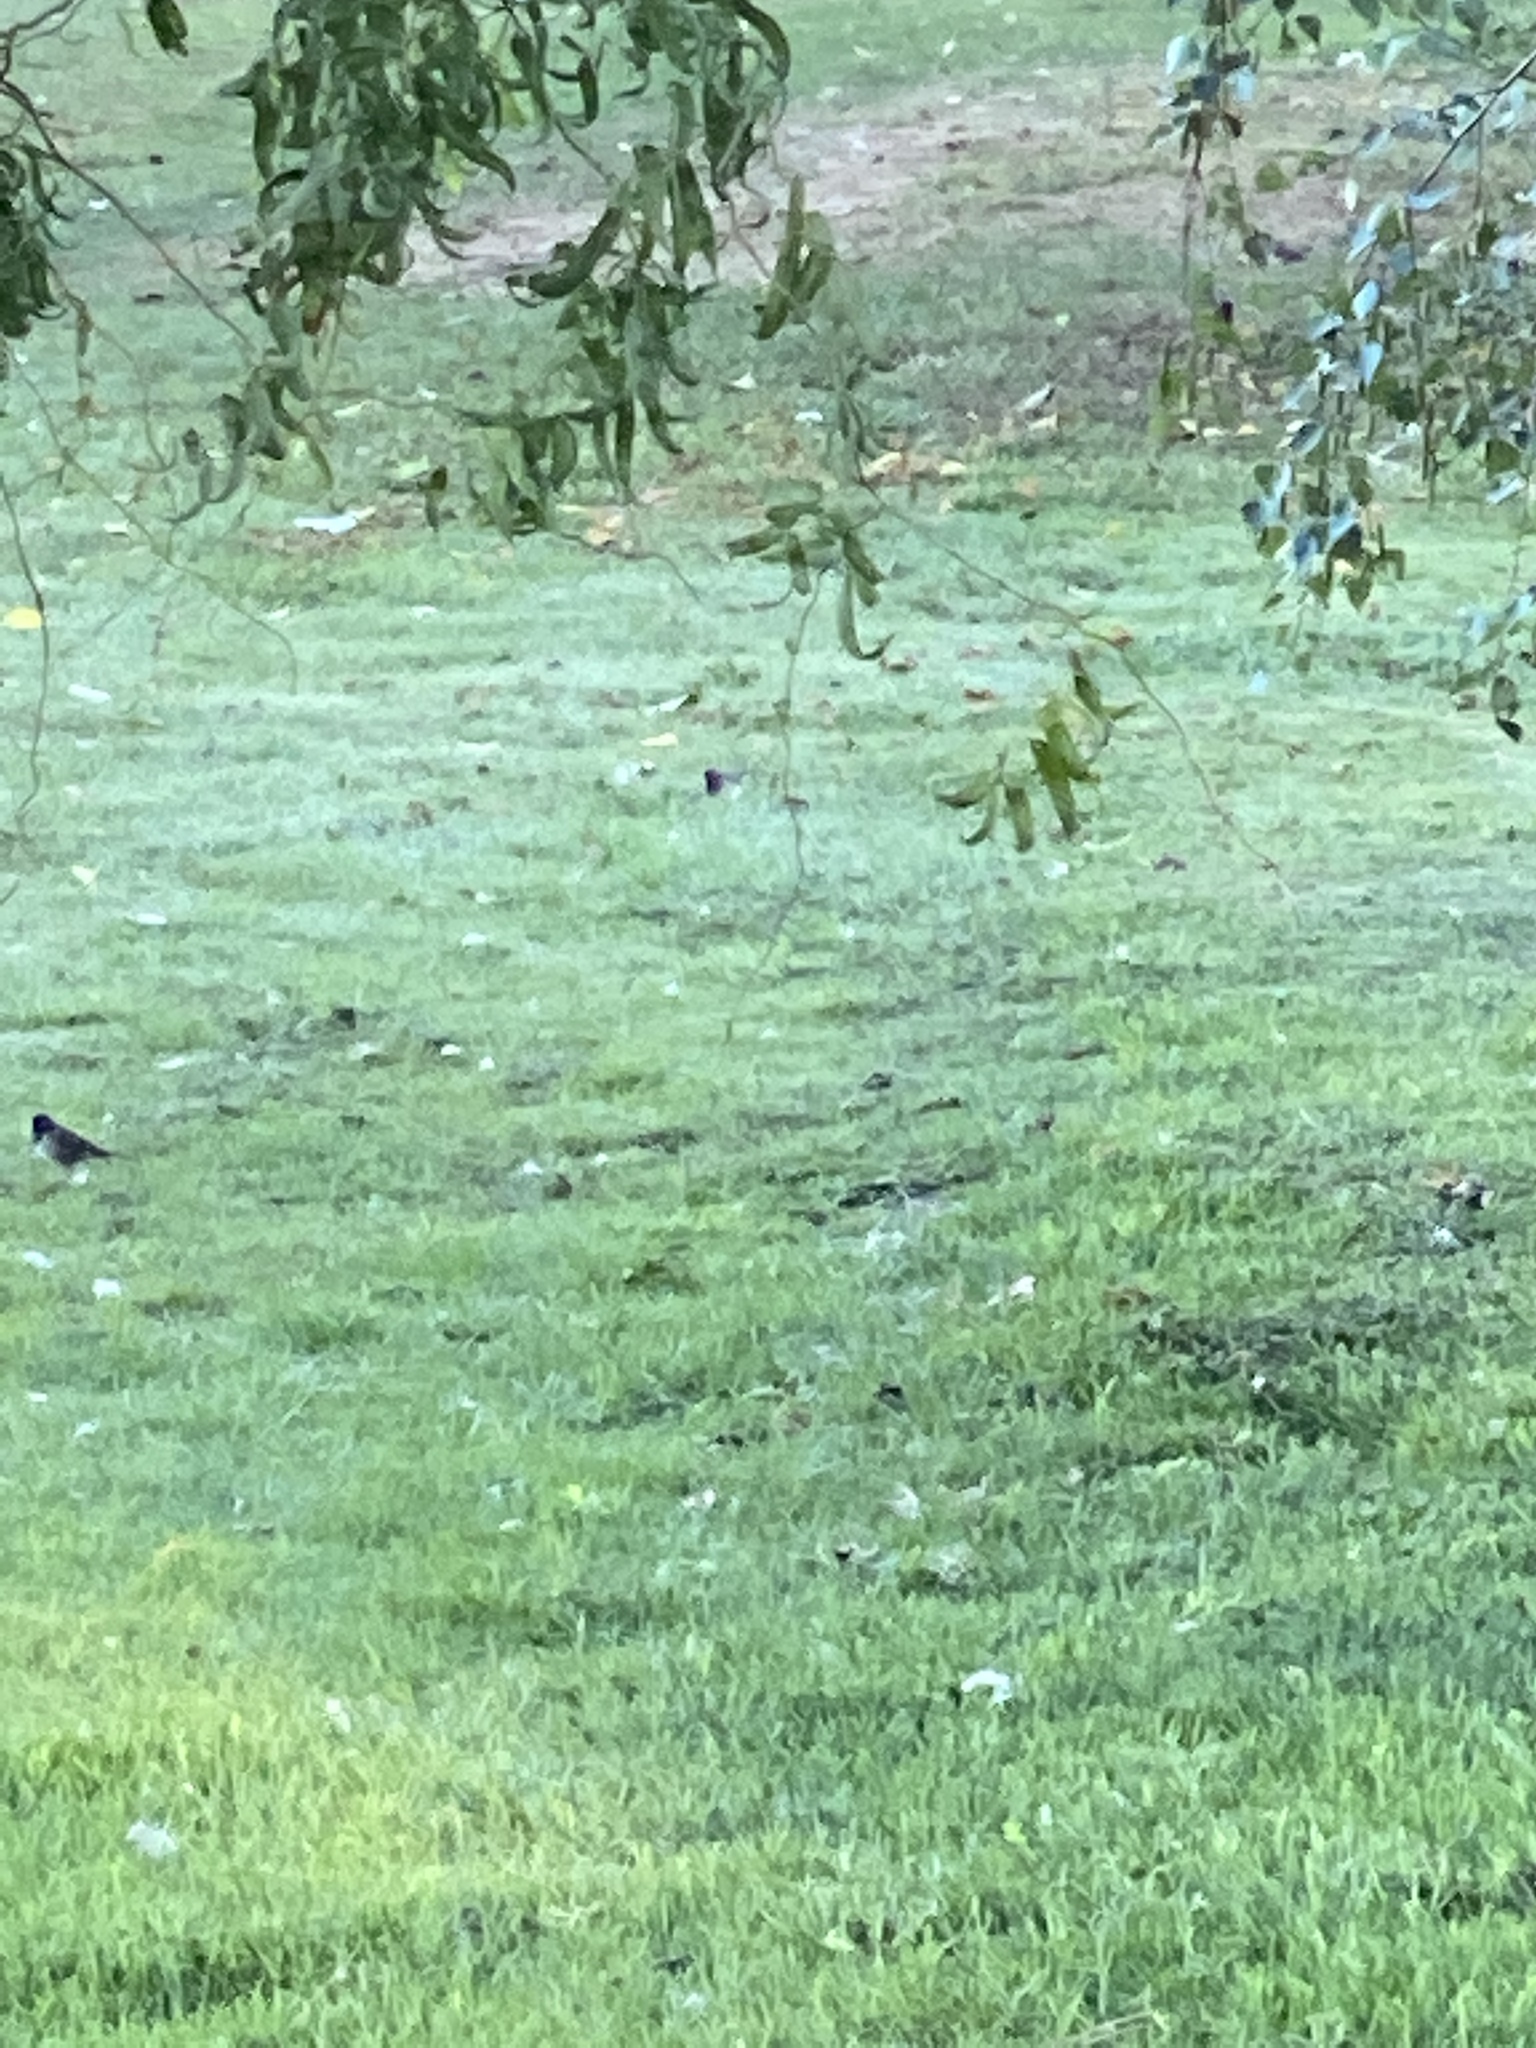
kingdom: Animalia
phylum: Chordata
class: Aves
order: Passeriformes
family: Passerellidae
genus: Junco
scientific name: Junco hyemalis
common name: Dark-eyed junco
